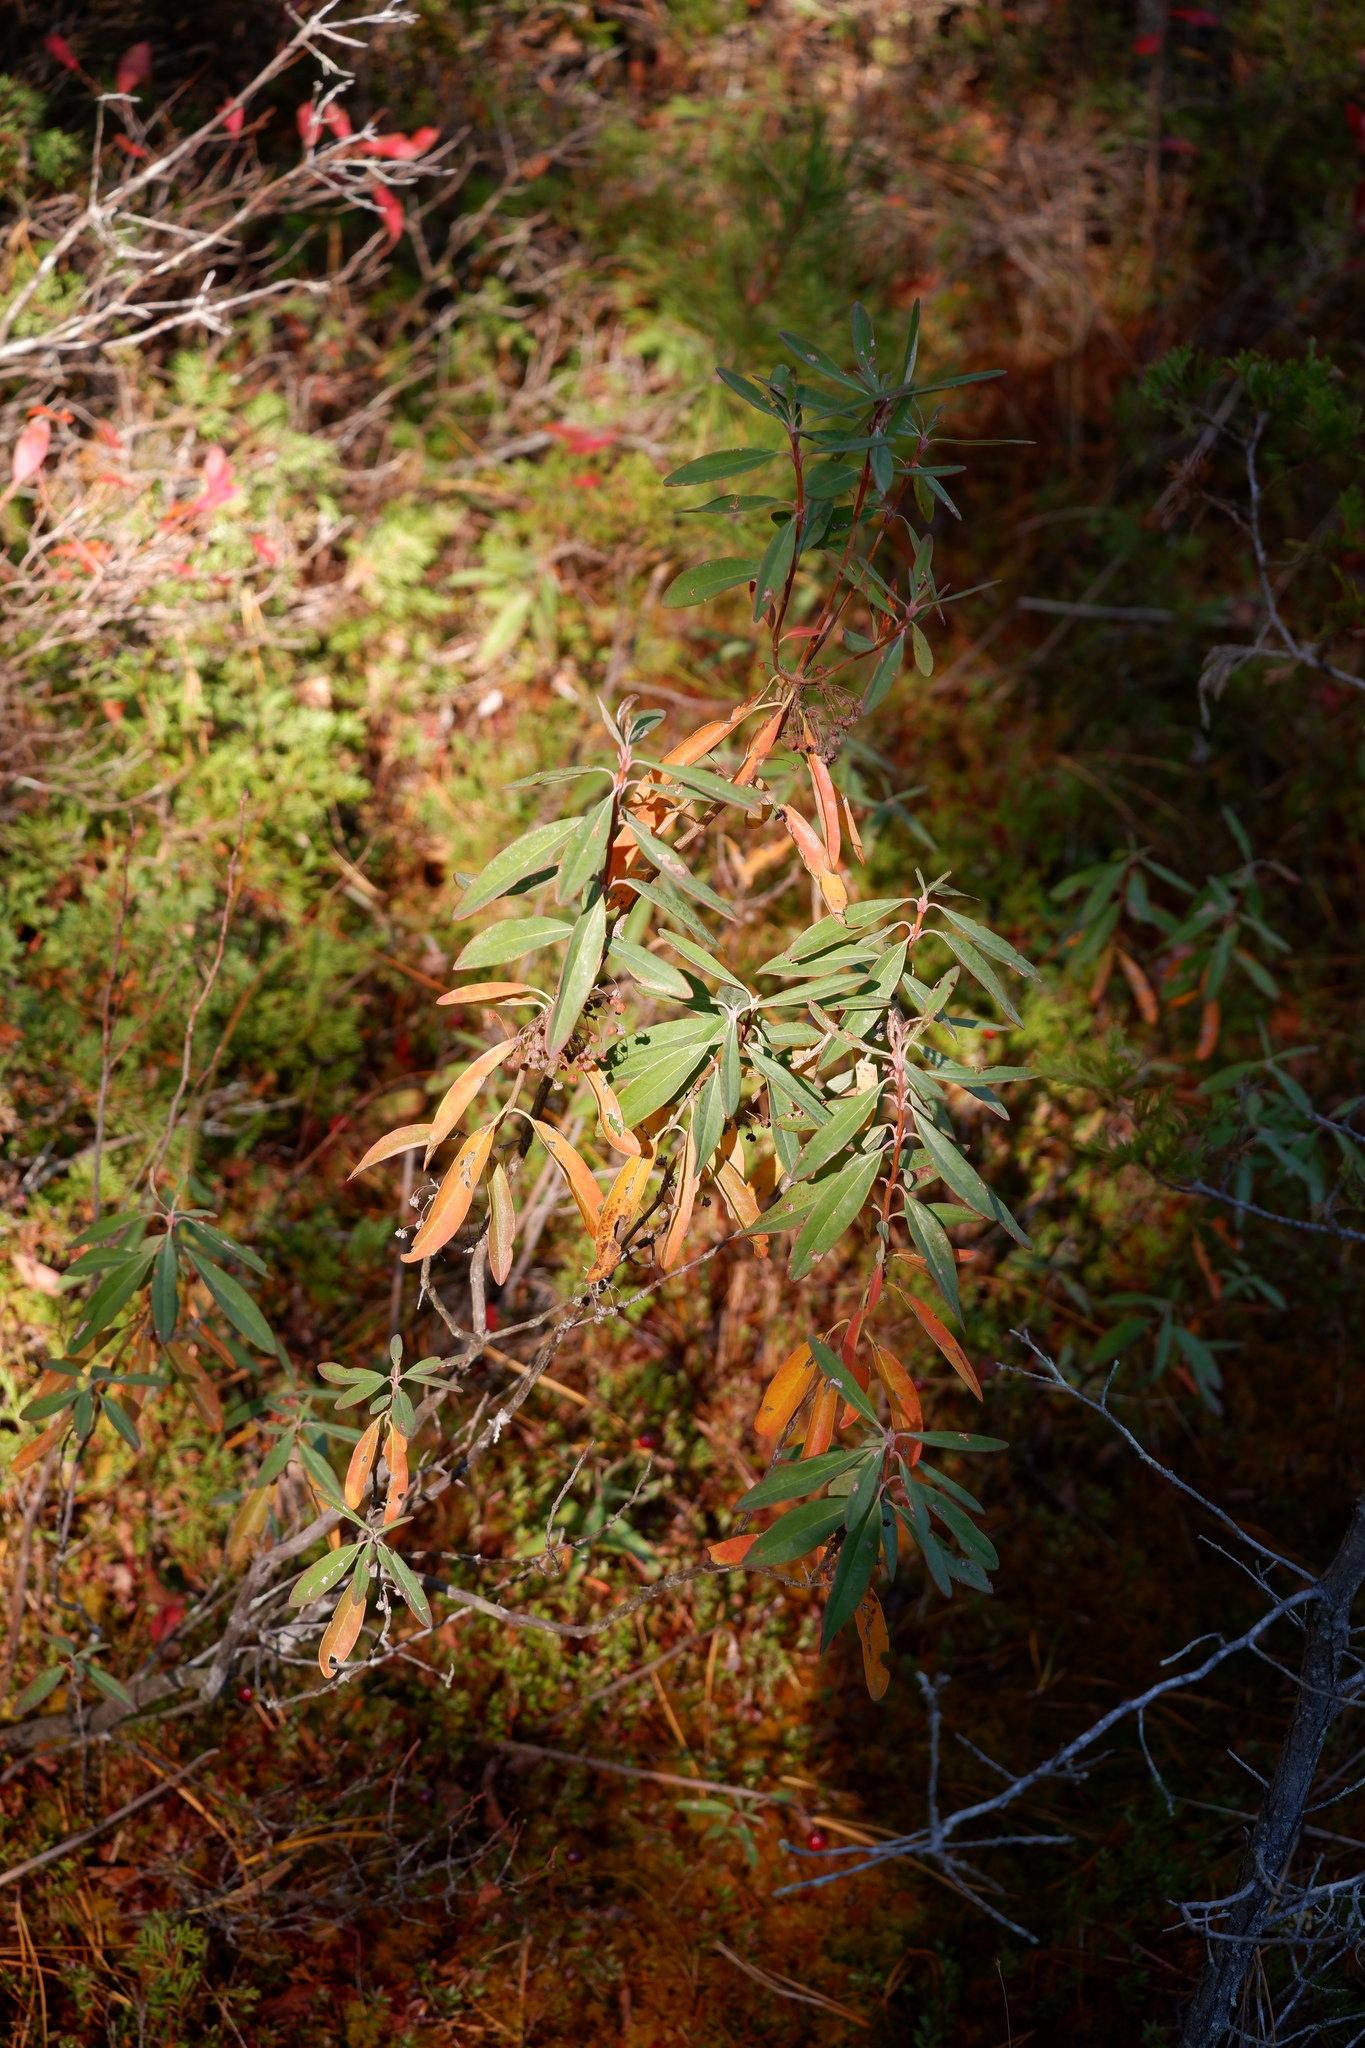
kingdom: Plantae
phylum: Tracheophyta
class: Magnoliopsida
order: Ericales
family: Ericaceae
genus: Kalmia
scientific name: Kalmia angustifolia
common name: Sheep-laurel
